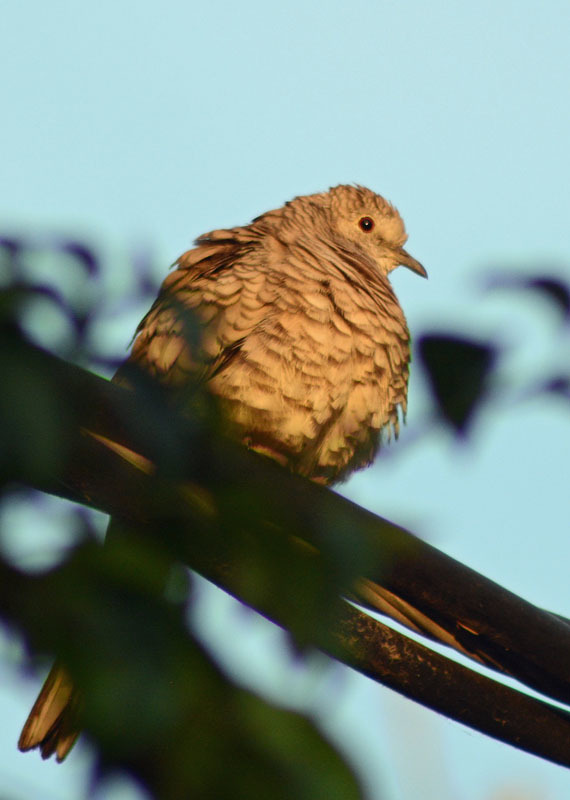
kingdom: Animalia
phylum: Chordata
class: Aves
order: Columbiformes
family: Columbidae
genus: Columbina
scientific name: Columbina inca
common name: Inca dove
